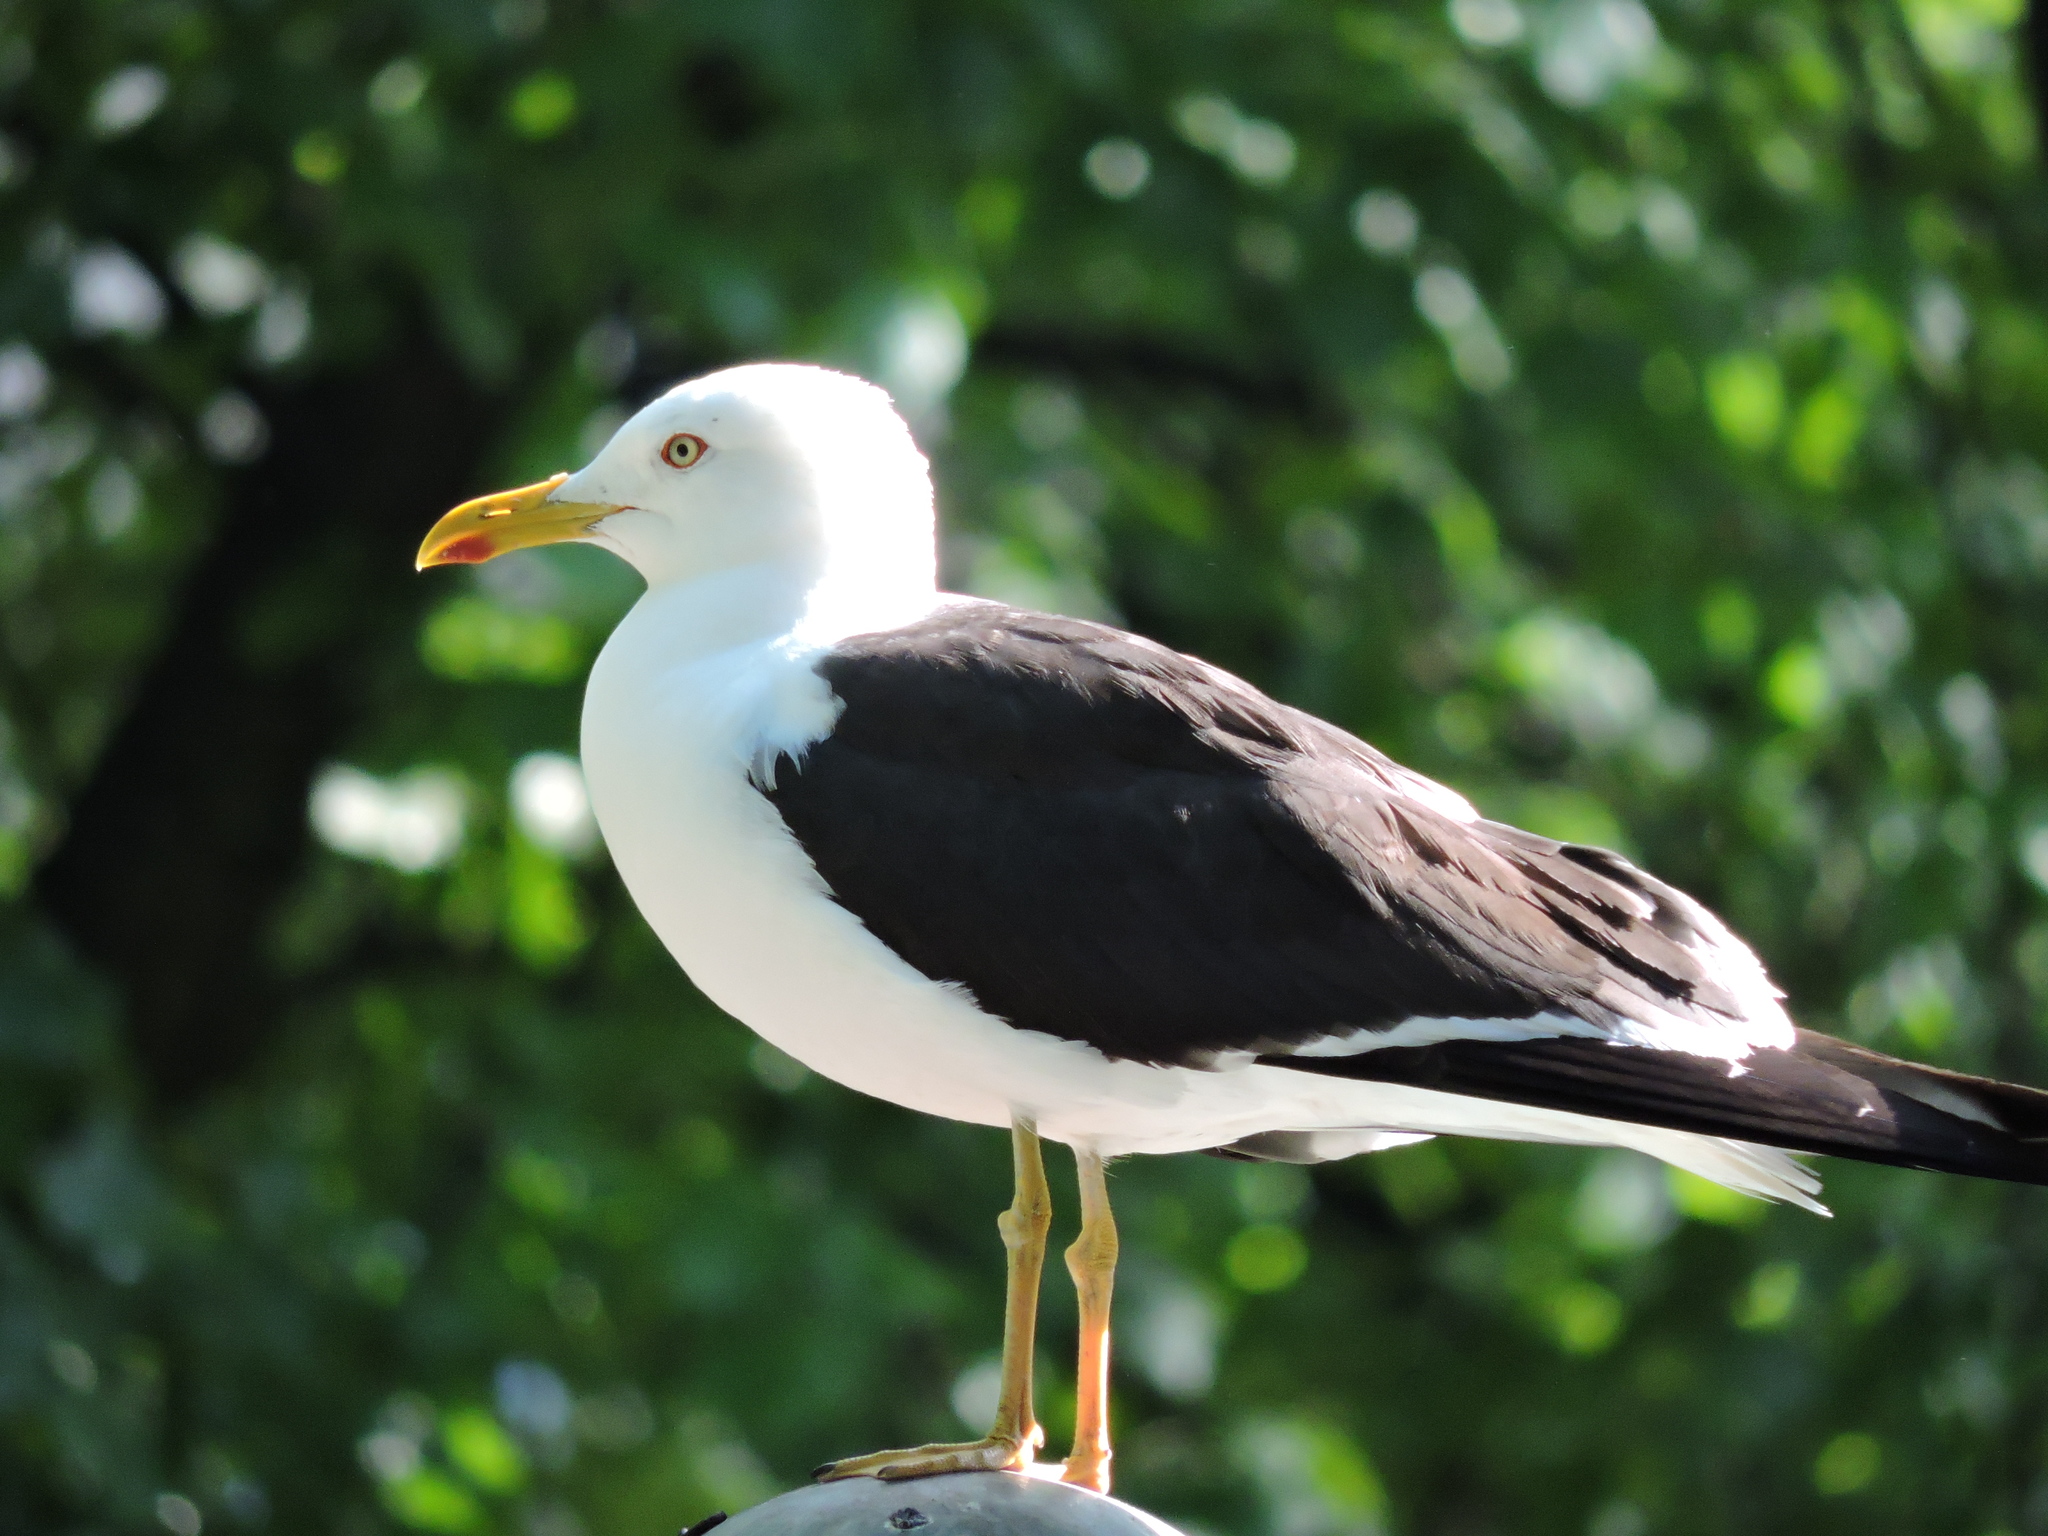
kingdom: Animalia
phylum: Chordata
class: Aves
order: Charadriiformes
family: Laridae
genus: Larus
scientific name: Larus fuscus
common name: Lesser black-backed gull
